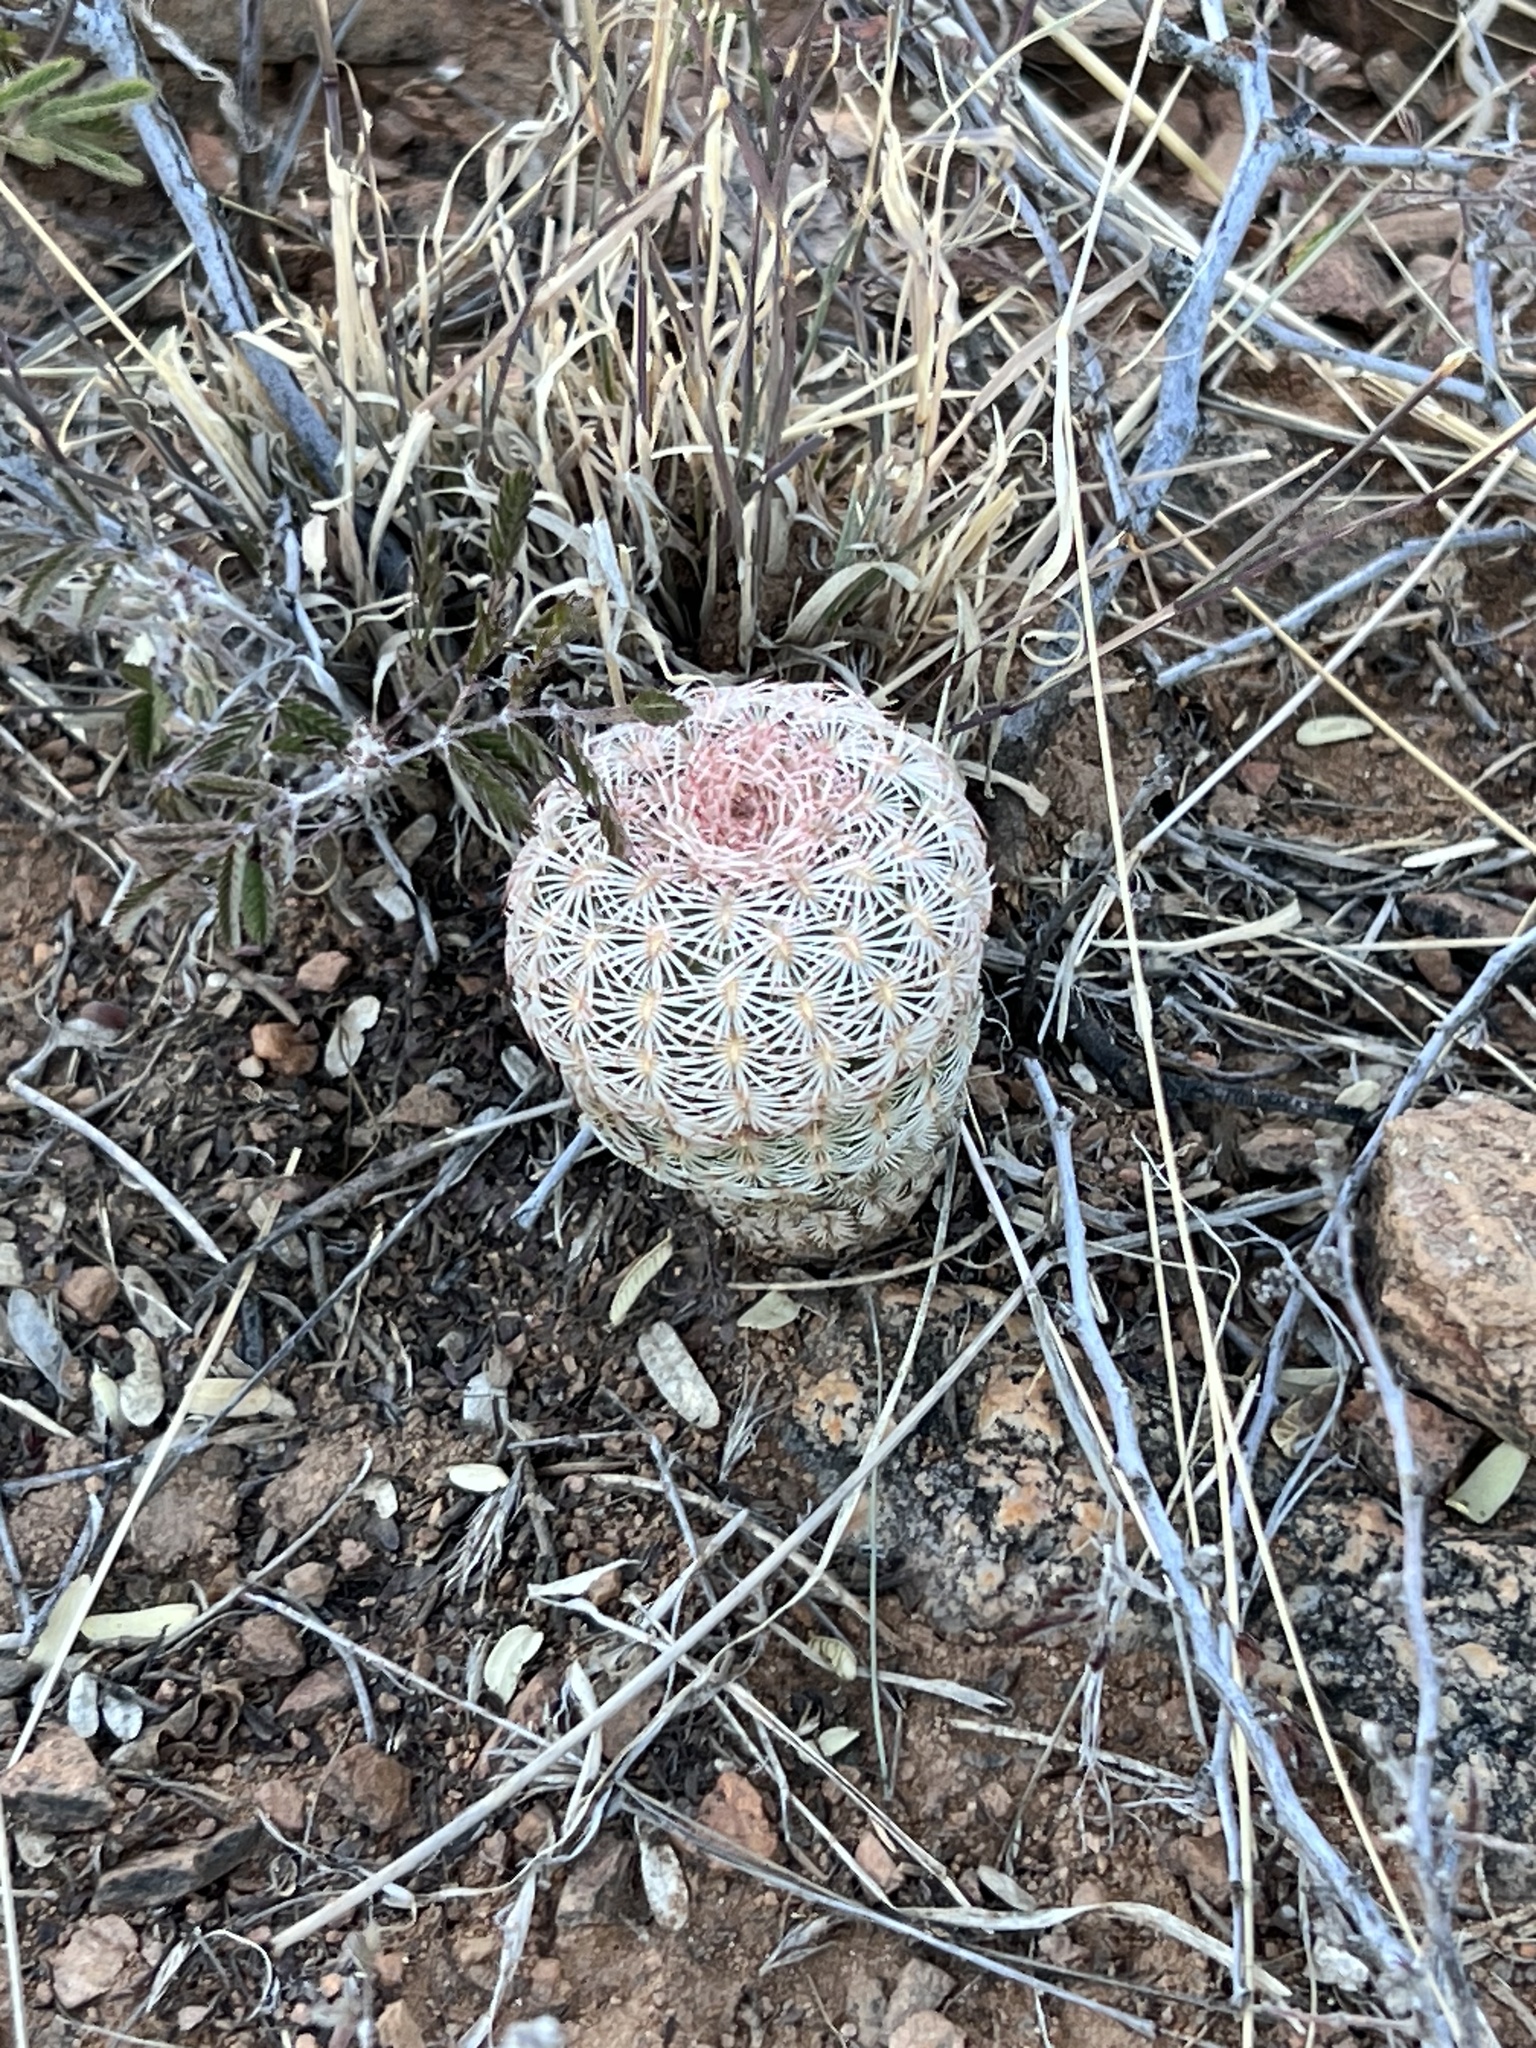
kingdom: Plantae
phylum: Tracheophyta
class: Magnoliopsida
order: Caryophyllales
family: Cactaceae
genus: Echinocereus
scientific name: Echinocereus rigidissimus
